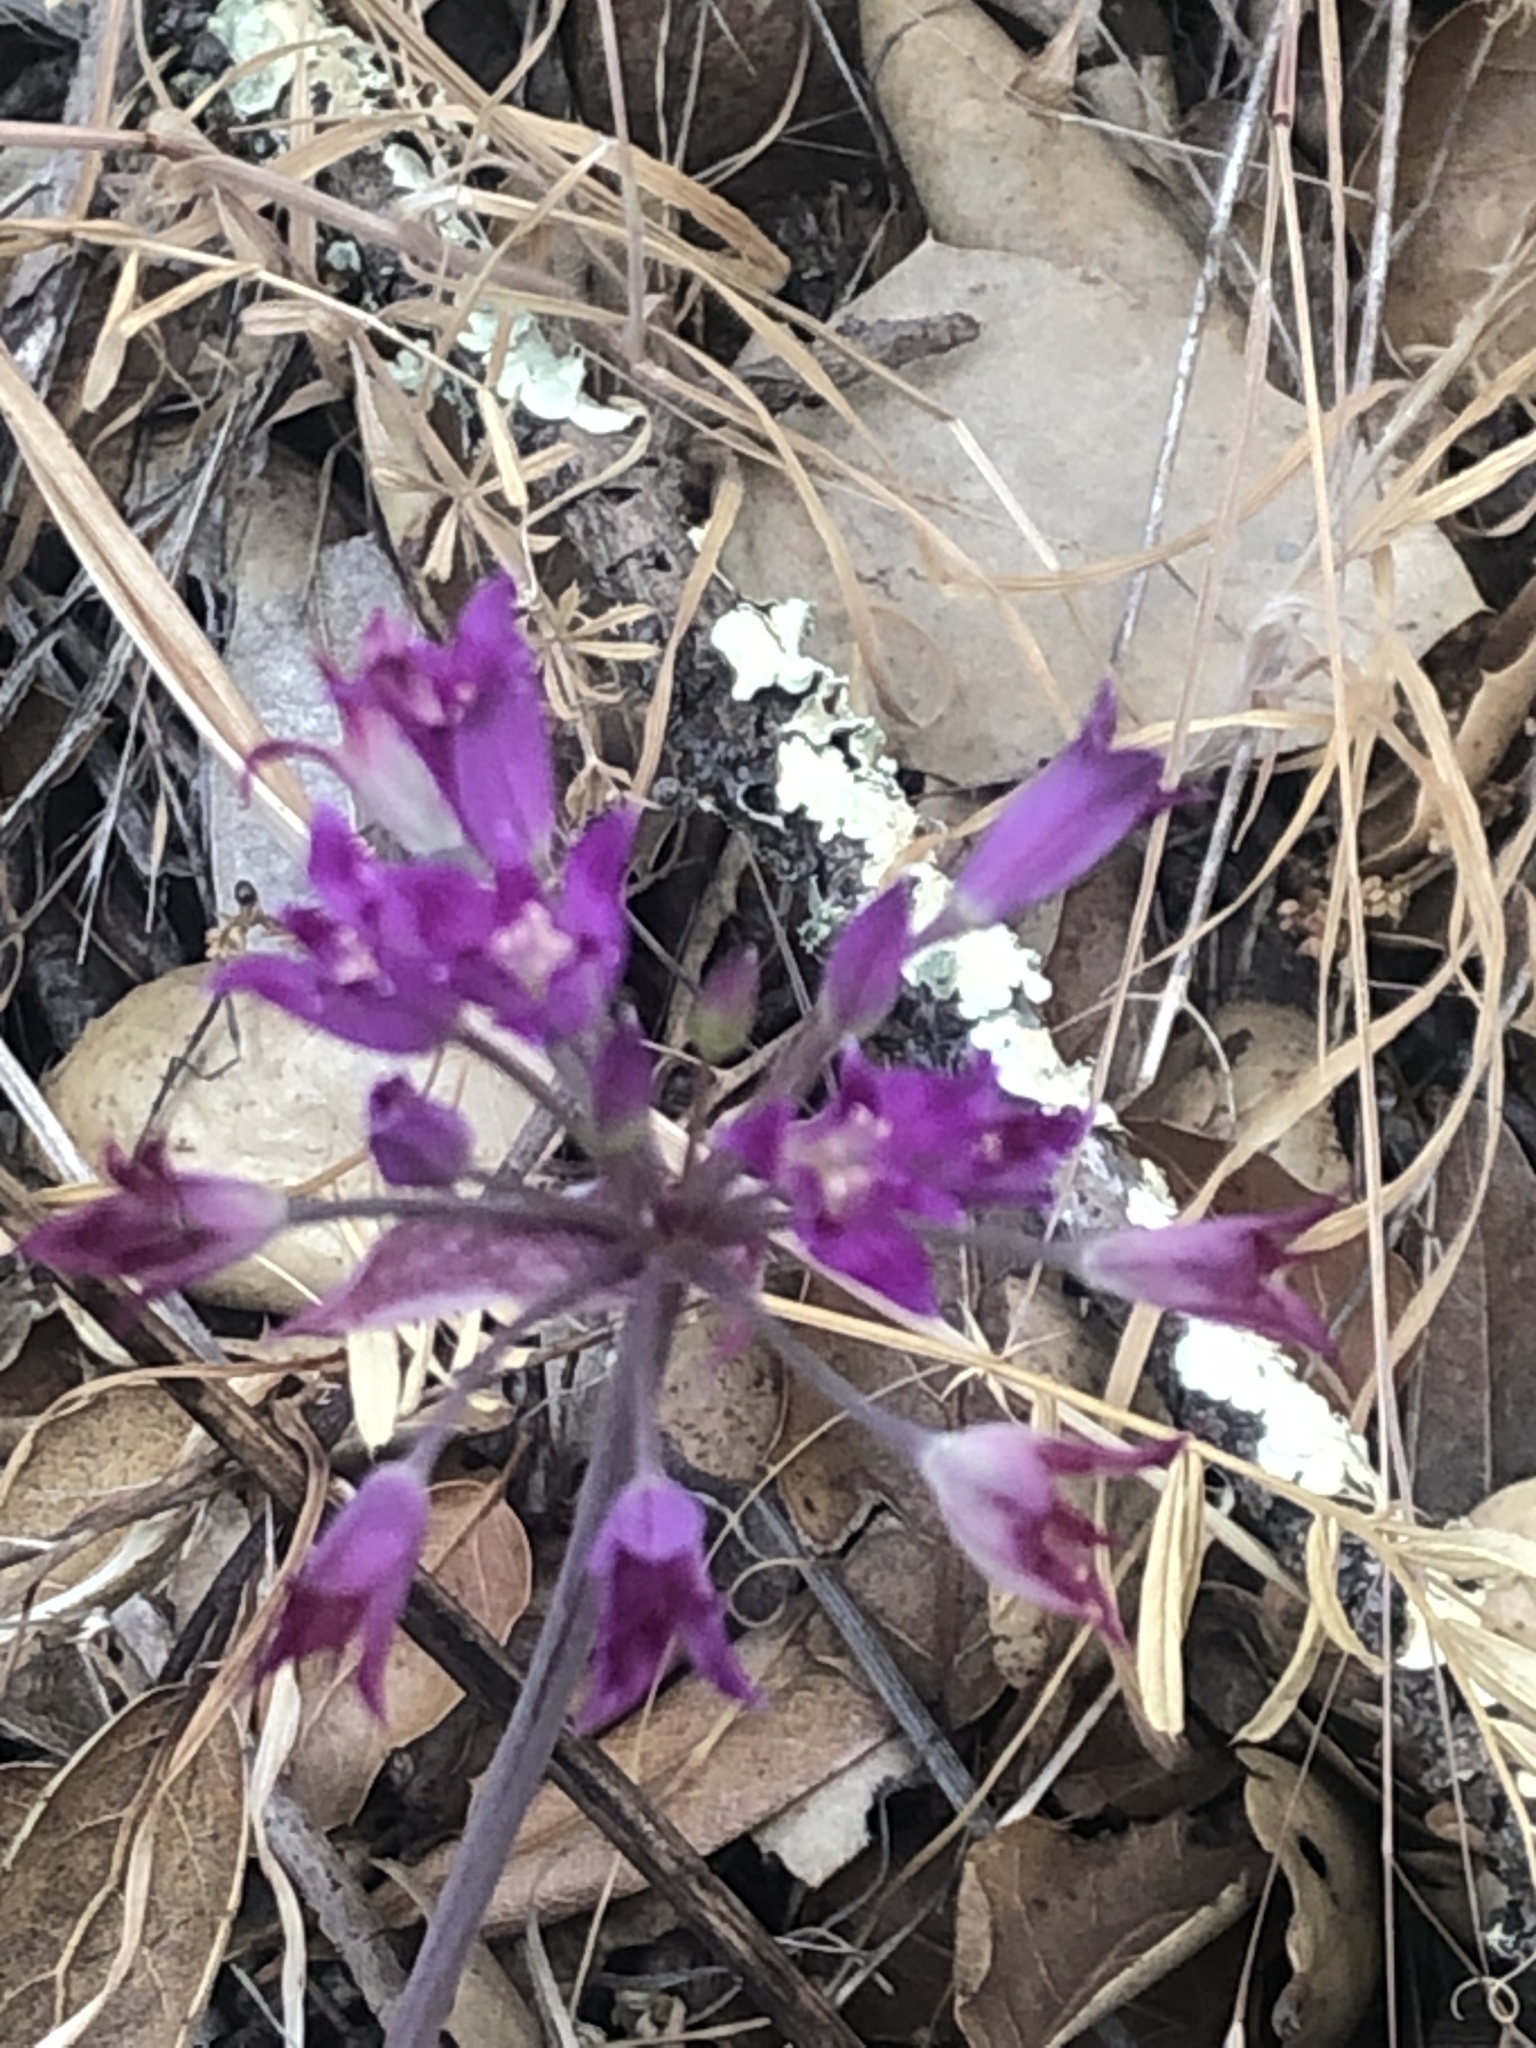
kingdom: Plantae
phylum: Tracheophyta
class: Liliopsida
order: Asparagales
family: Amaryllidaceae
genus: Allium
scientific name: Allium peninsulare
